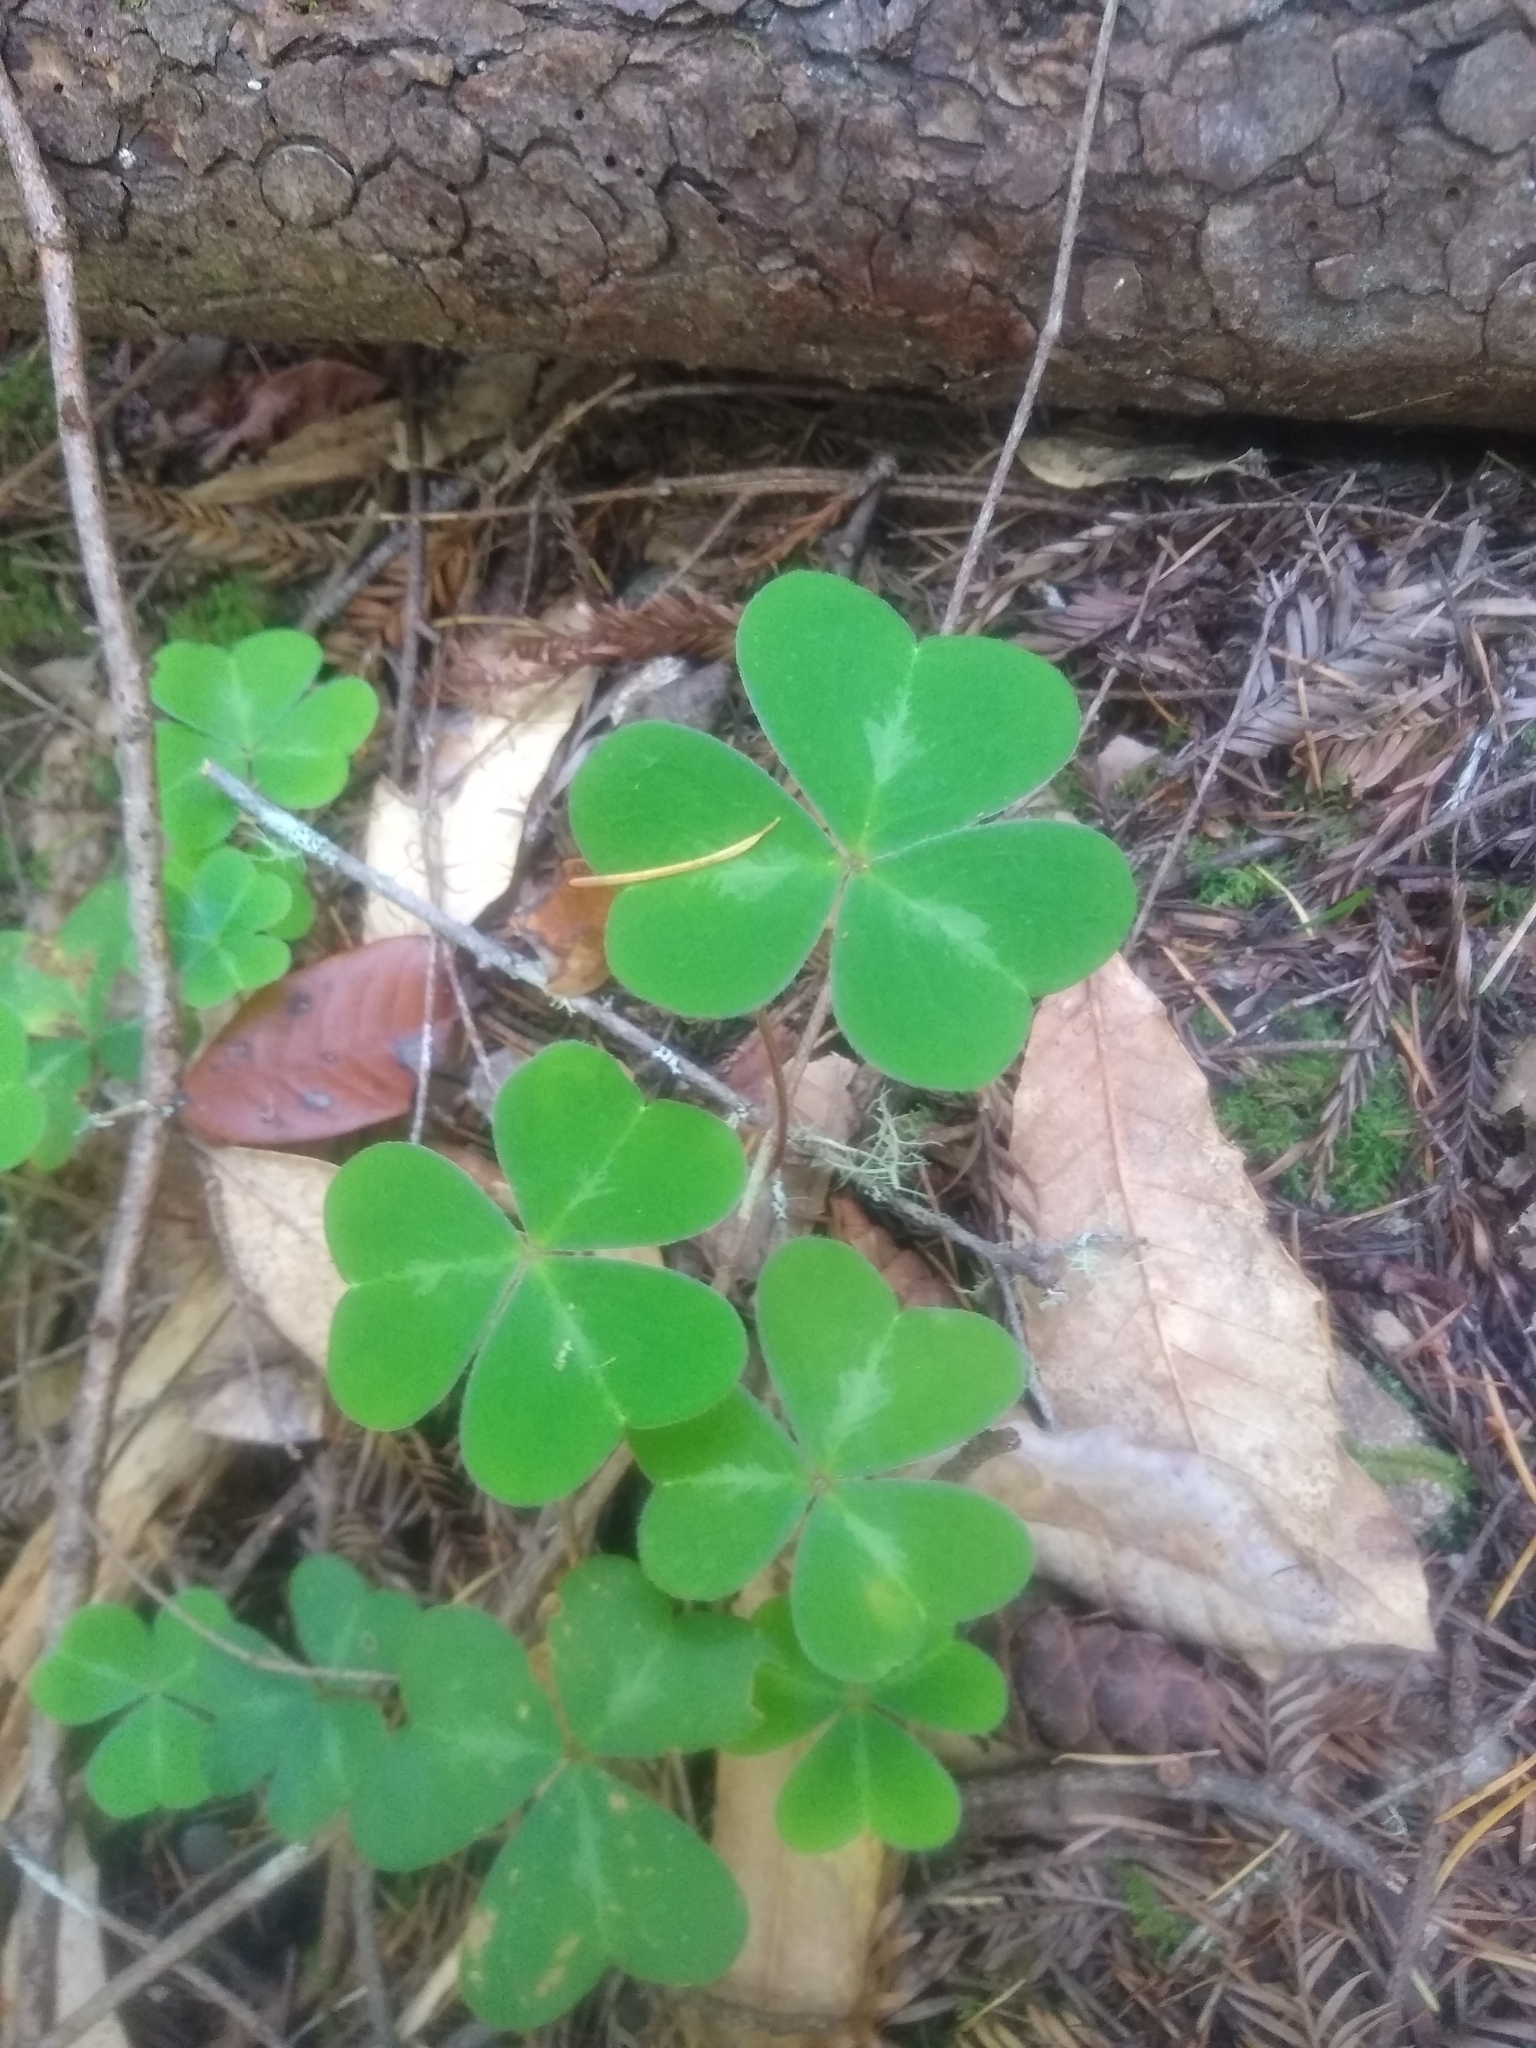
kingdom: Plantae
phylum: Tracheophyta
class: Magnoliopsida
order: Oxalidales
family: Oxalidaceae
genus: Oxalis
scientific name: Oxalis oregana
